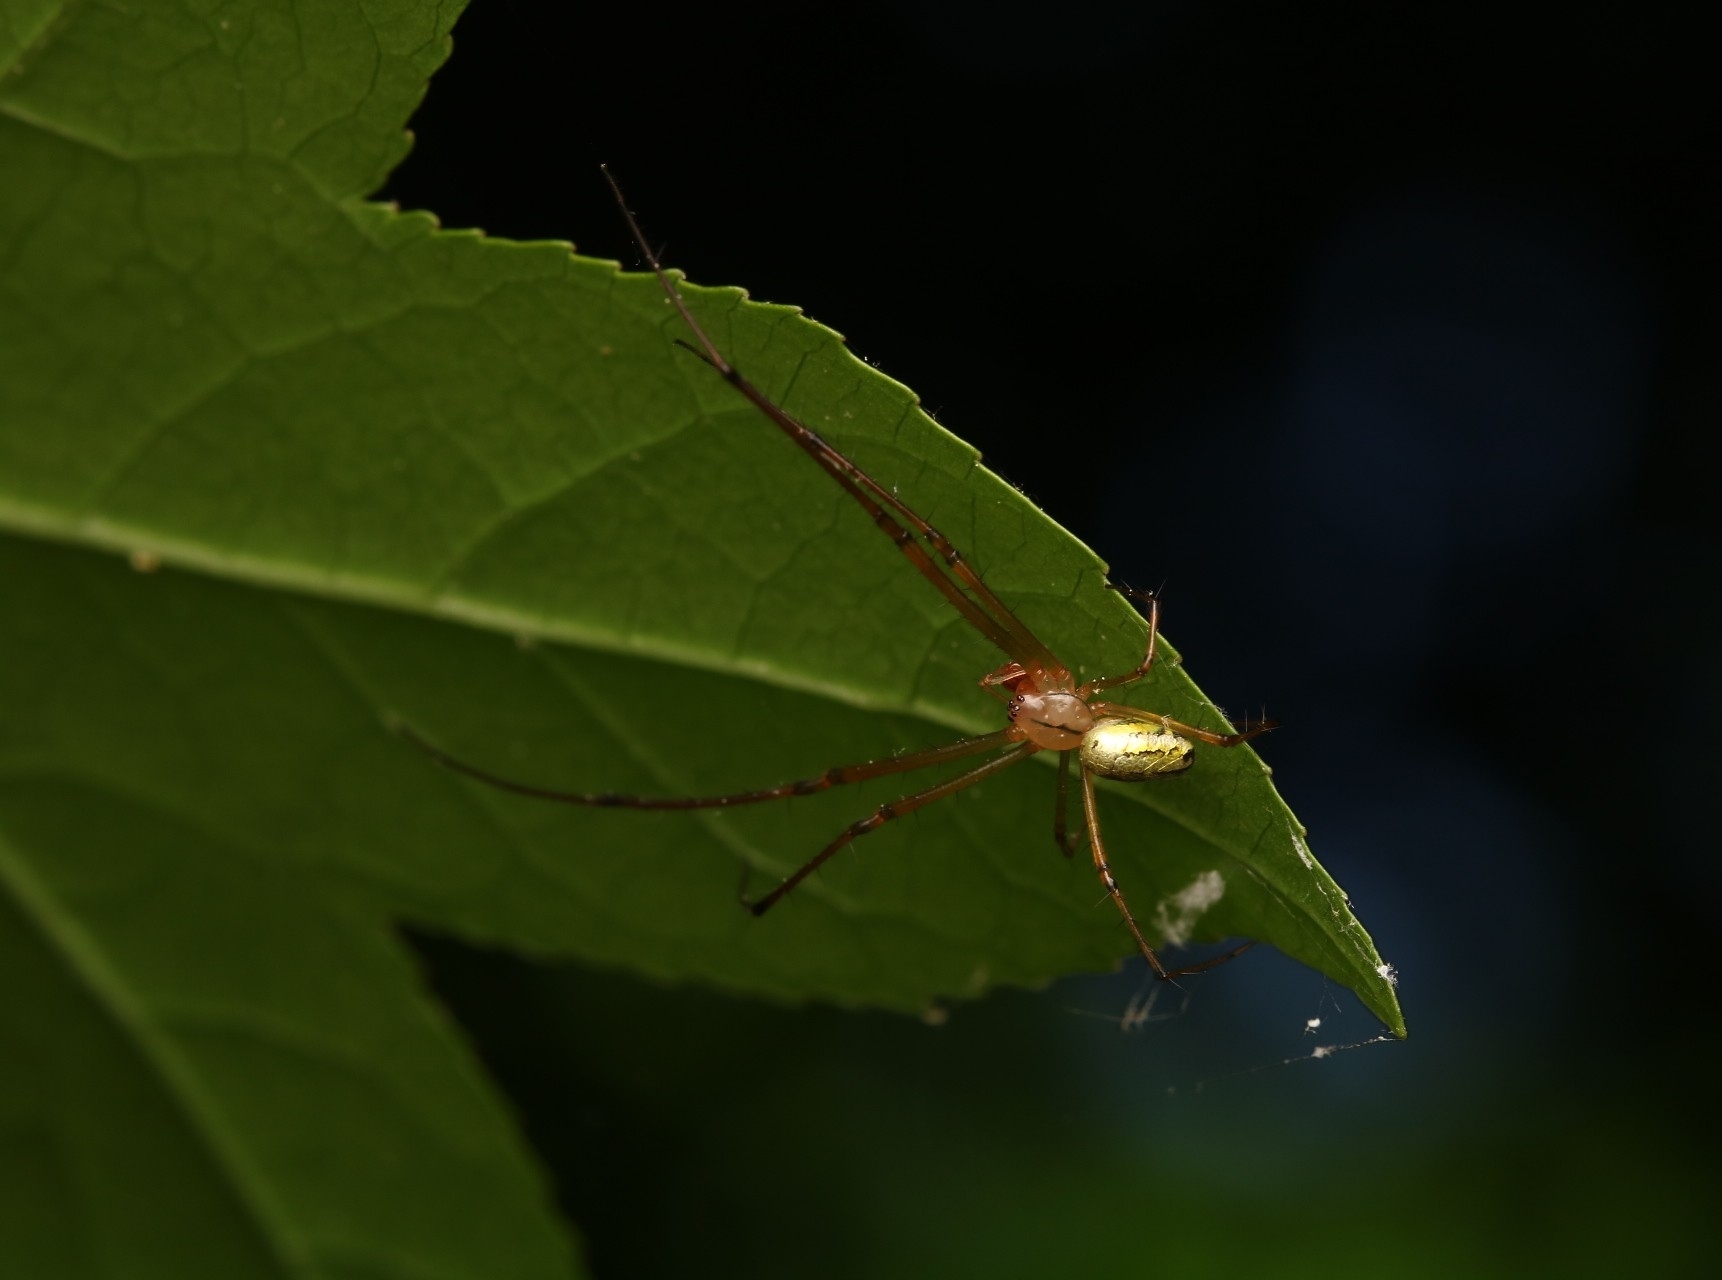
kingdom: Animalia
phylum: Arthropoda
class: Arachnida
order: Araneae
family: Tetragnathidae
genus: Leucauge
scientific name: Leucauge venusta
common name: Longjawed orb weavers
